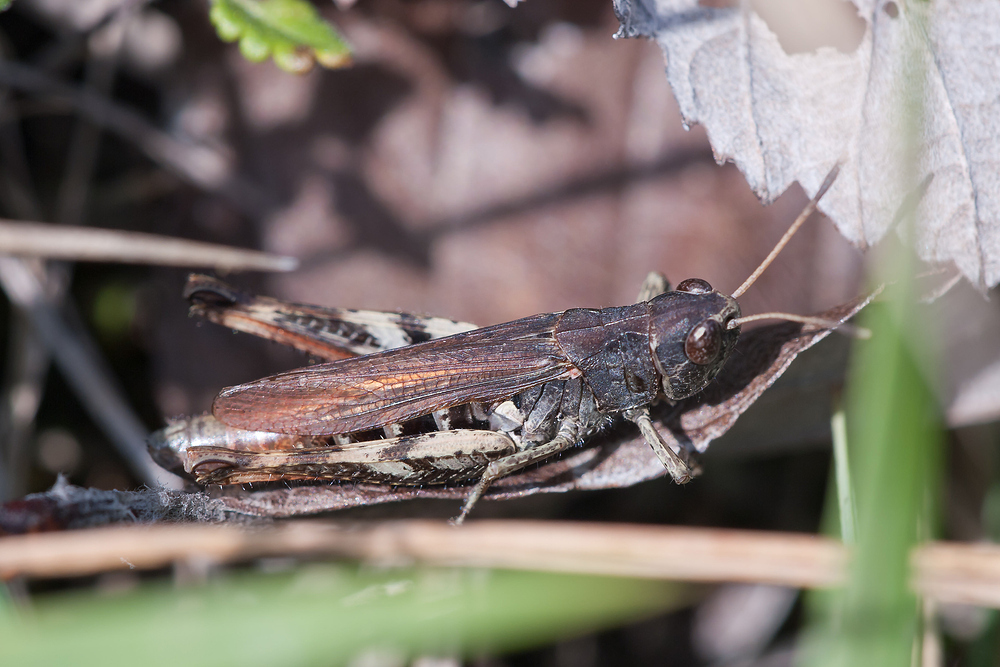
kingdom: Animalia
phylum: Arthropoda
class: Insecta
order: Orthoptera
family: Acrididae
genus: Gomphocerippus
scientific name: Gomphocerippus rufus
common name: Rufous grasshopper
